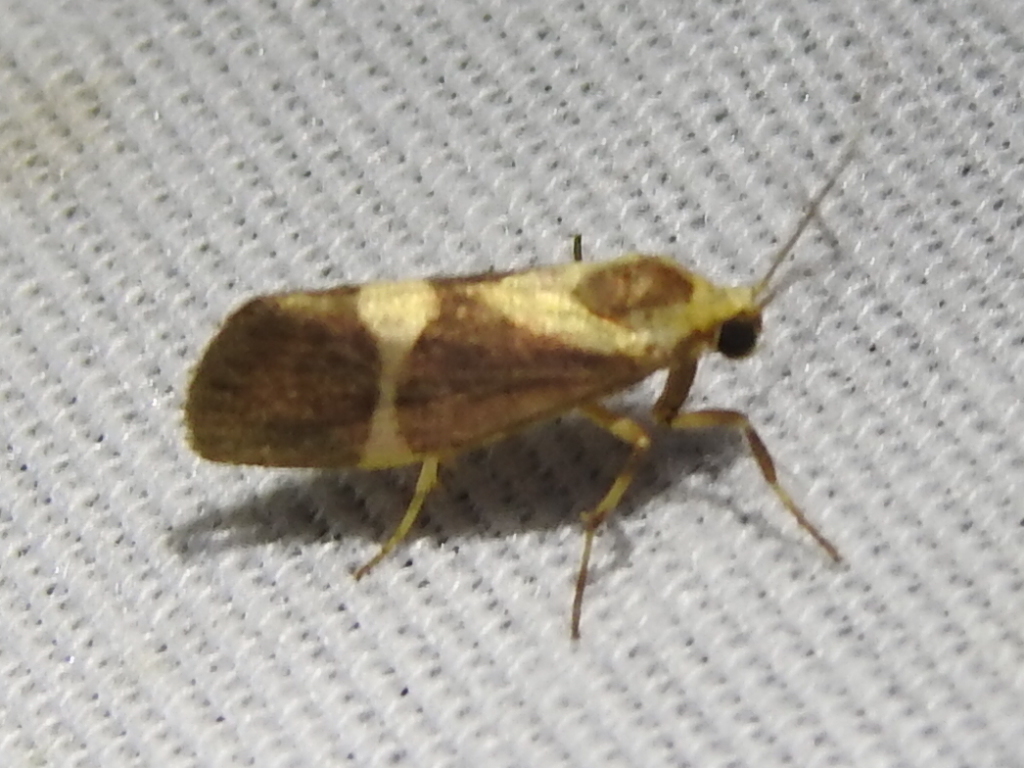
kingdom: Animalia
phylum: Arthropoda
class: Insecta
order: Lepidoptera
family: Erebidae
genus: Cisthene
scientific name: Cisthene subrufa
